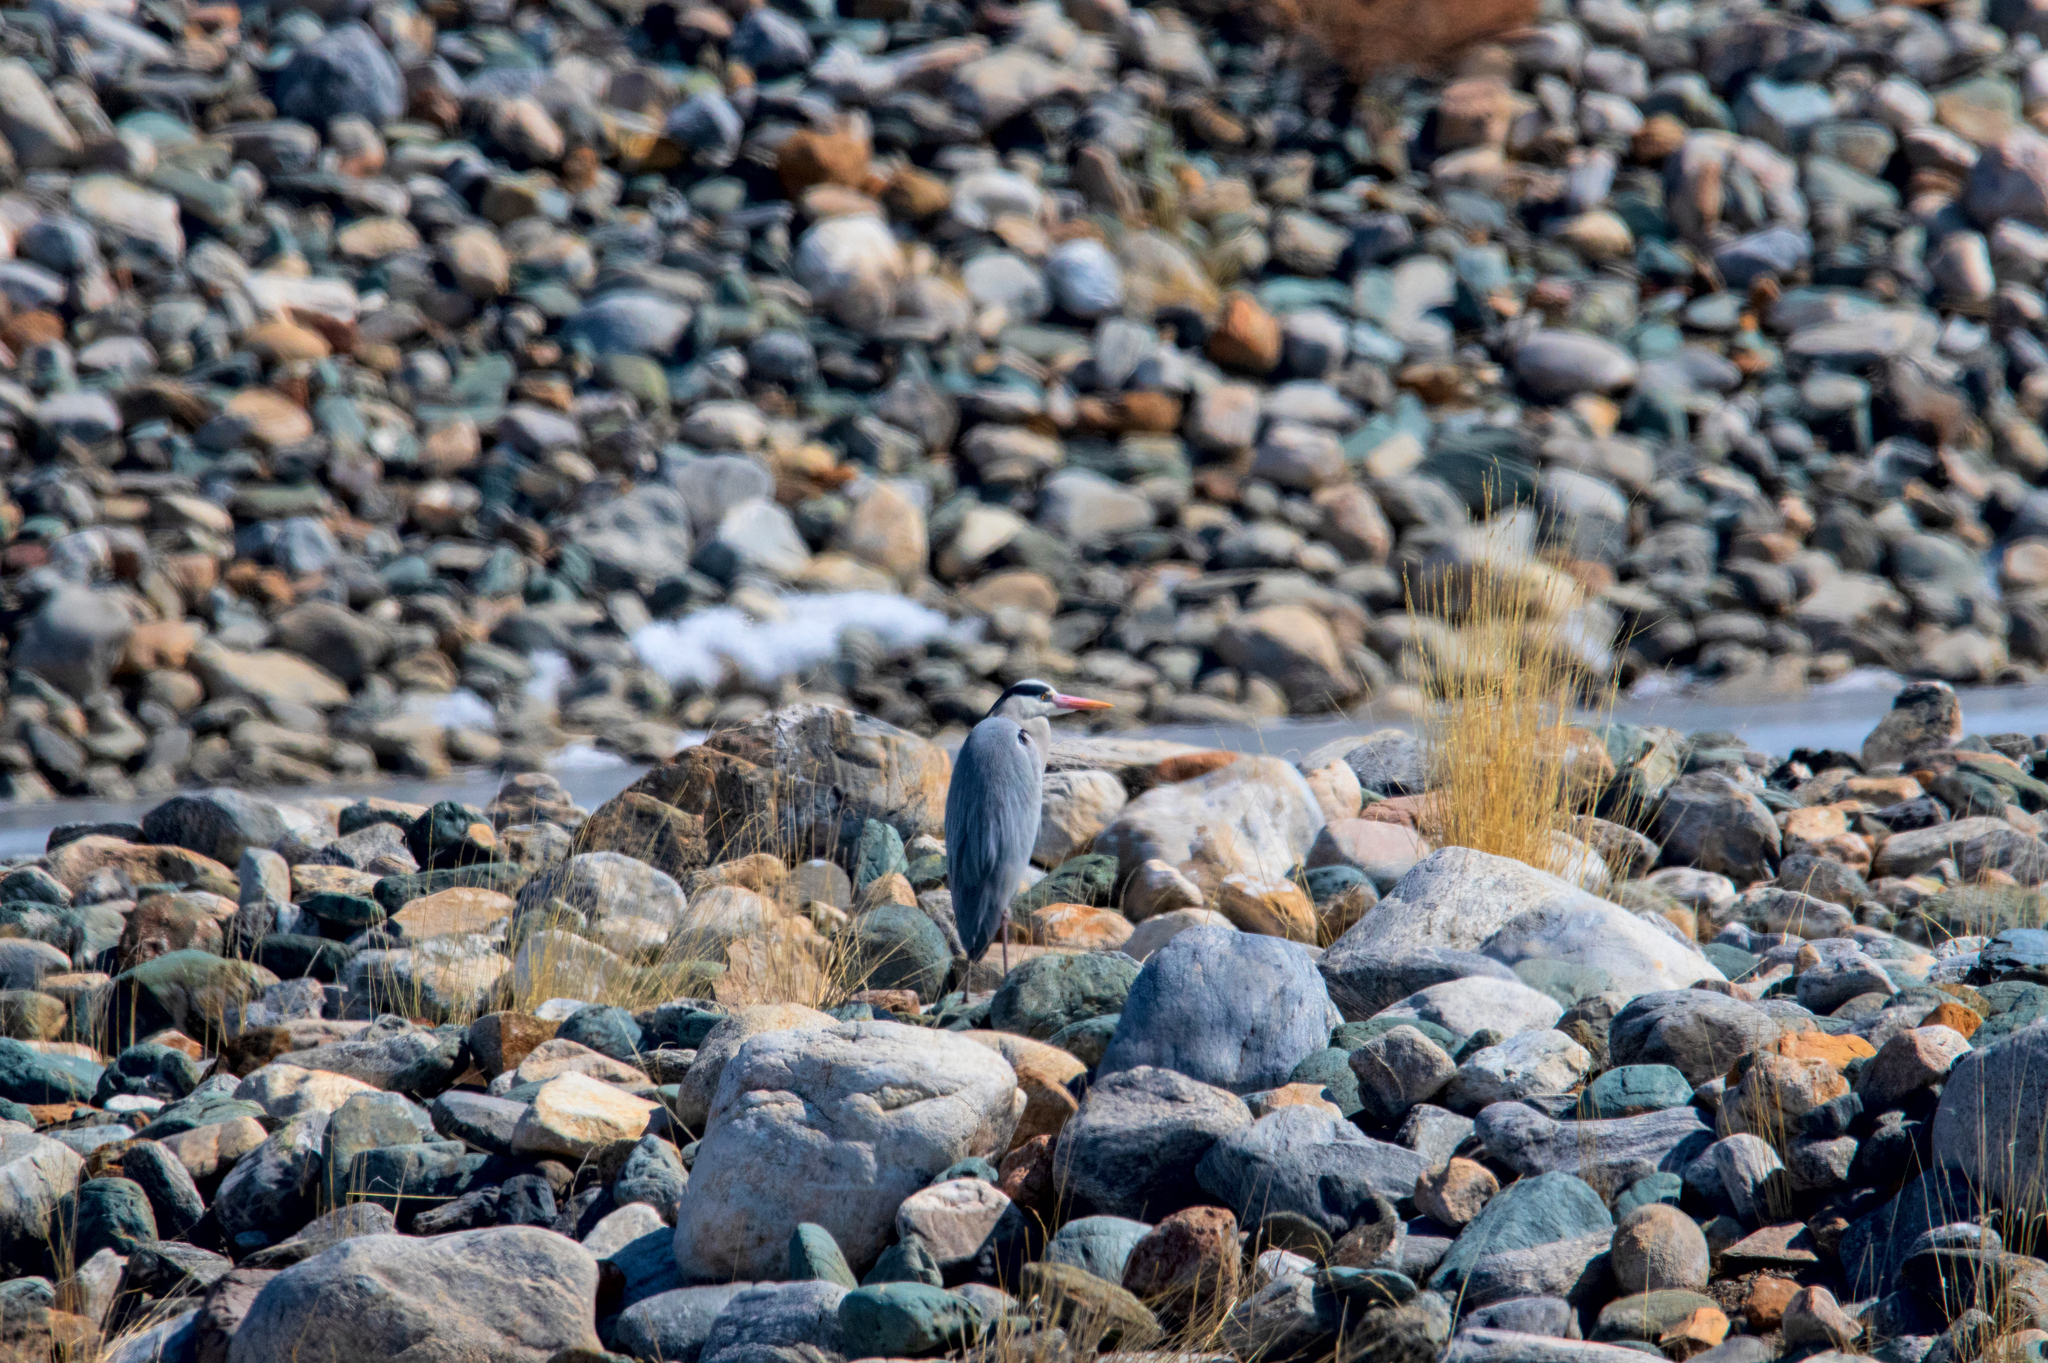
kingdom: Animalia
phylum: Chordata
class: Aves
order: Pelecaniformes
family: Ardeidae
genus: Ardea
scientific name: Ardea cinerea
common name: Grey heron
